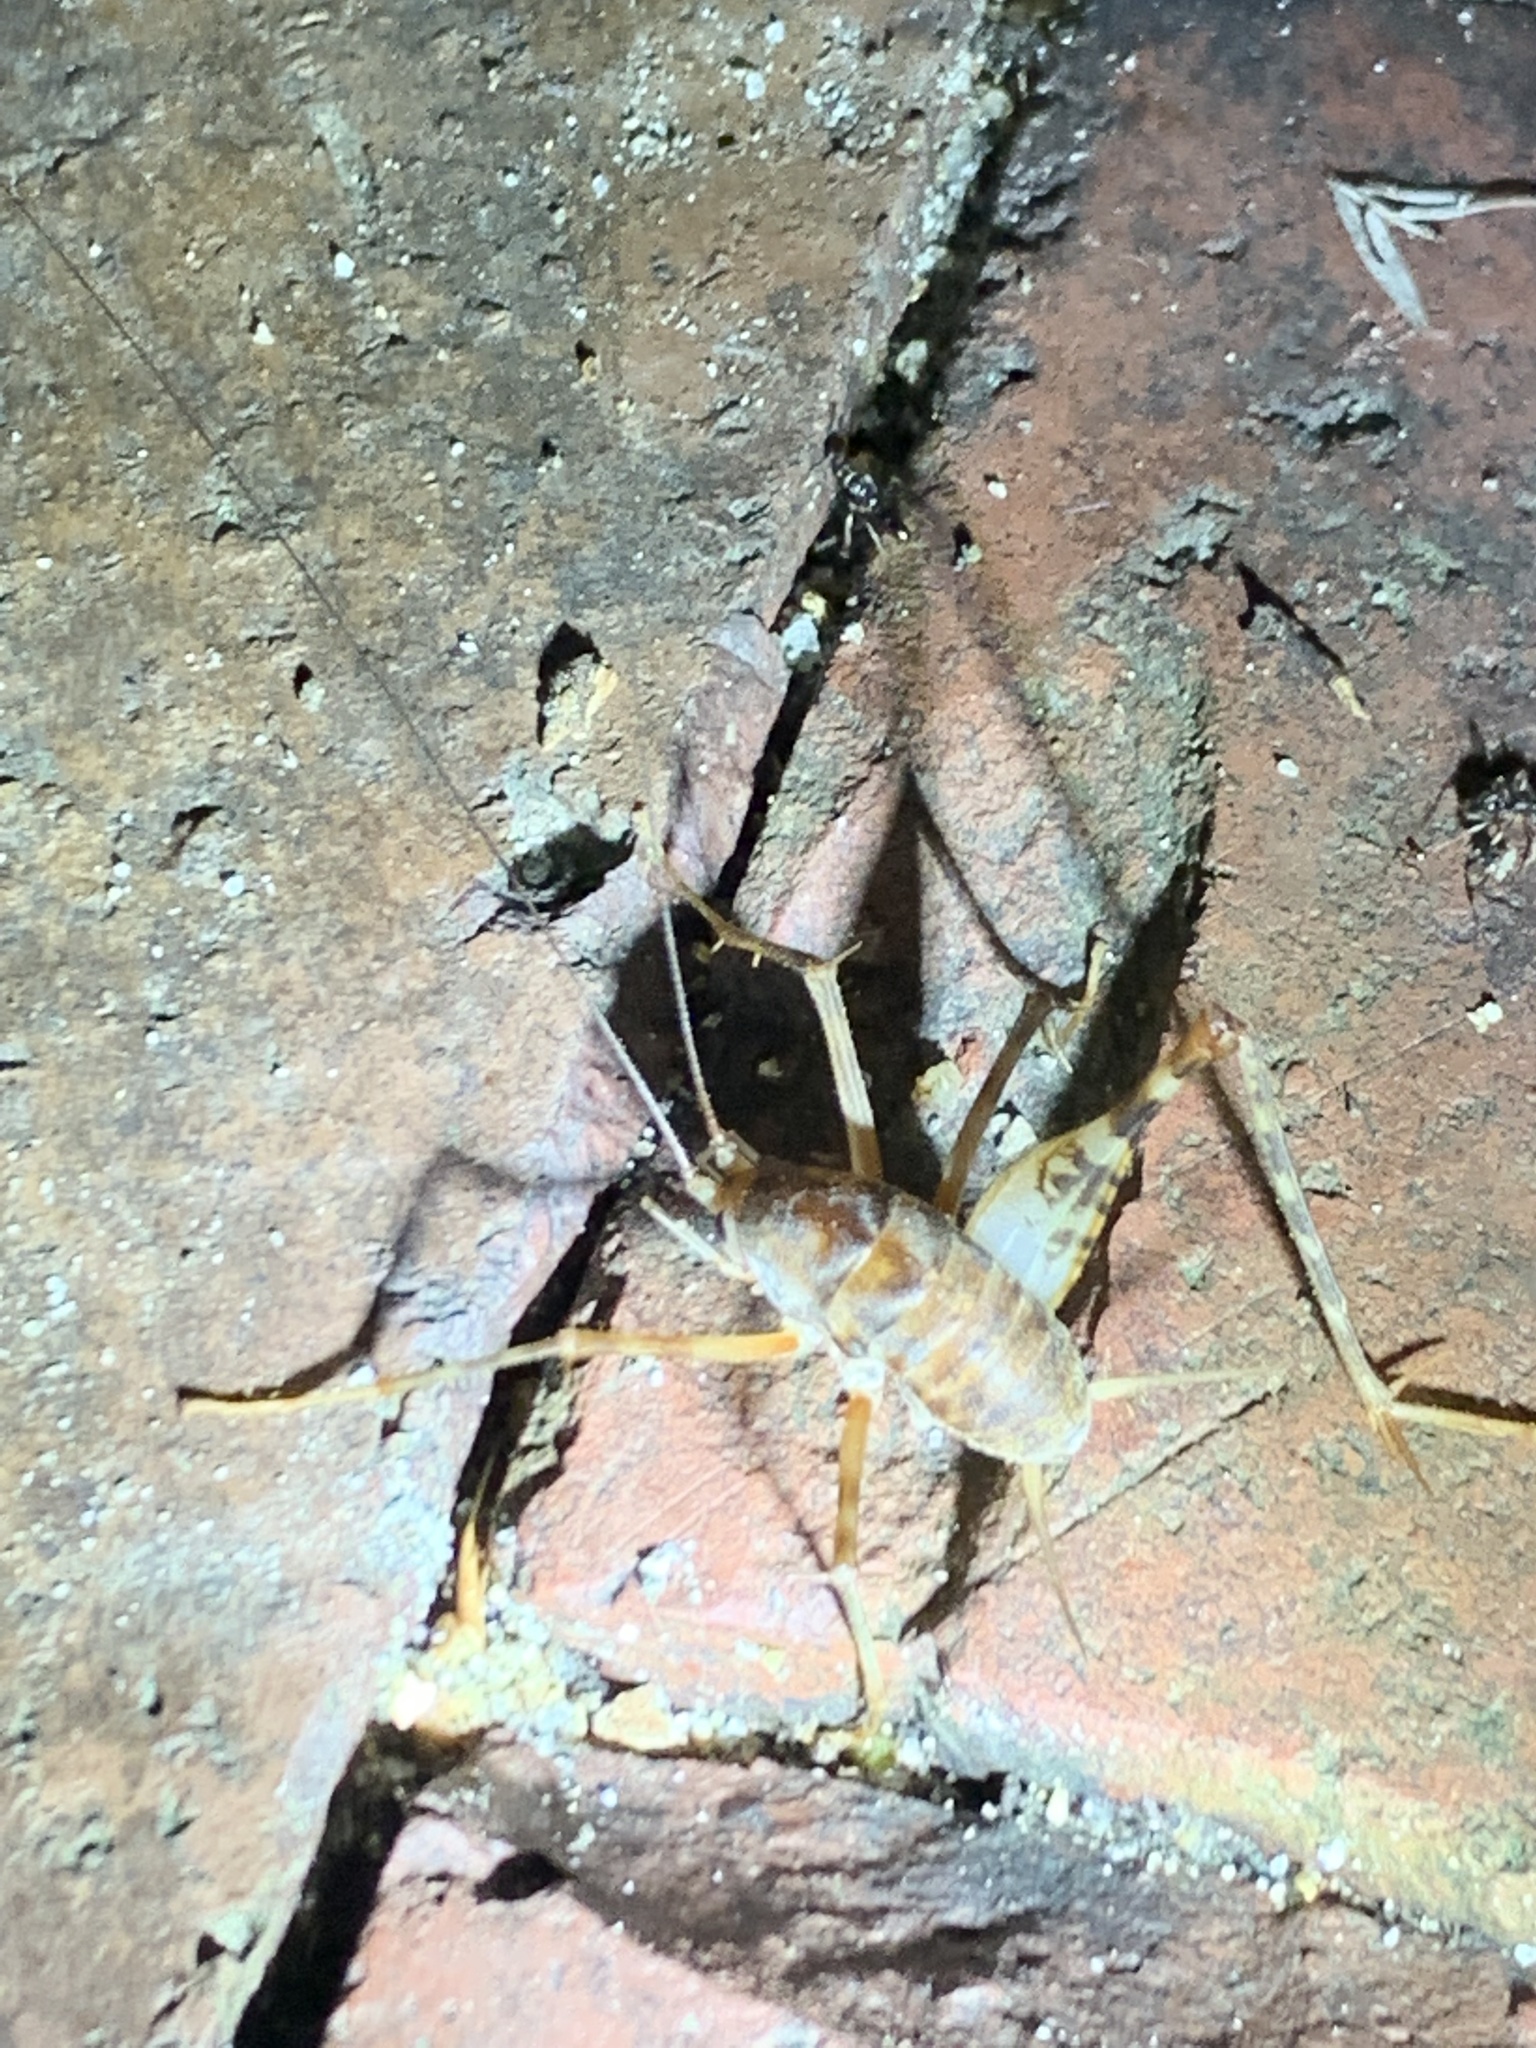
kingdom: Animalia
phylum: Arthropoda
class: Insecta
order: Orthoptera
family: Rhaphidophoridae
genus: Tachycines
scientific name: Tachycines asynamorus
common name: Greenhouse camel cricket
